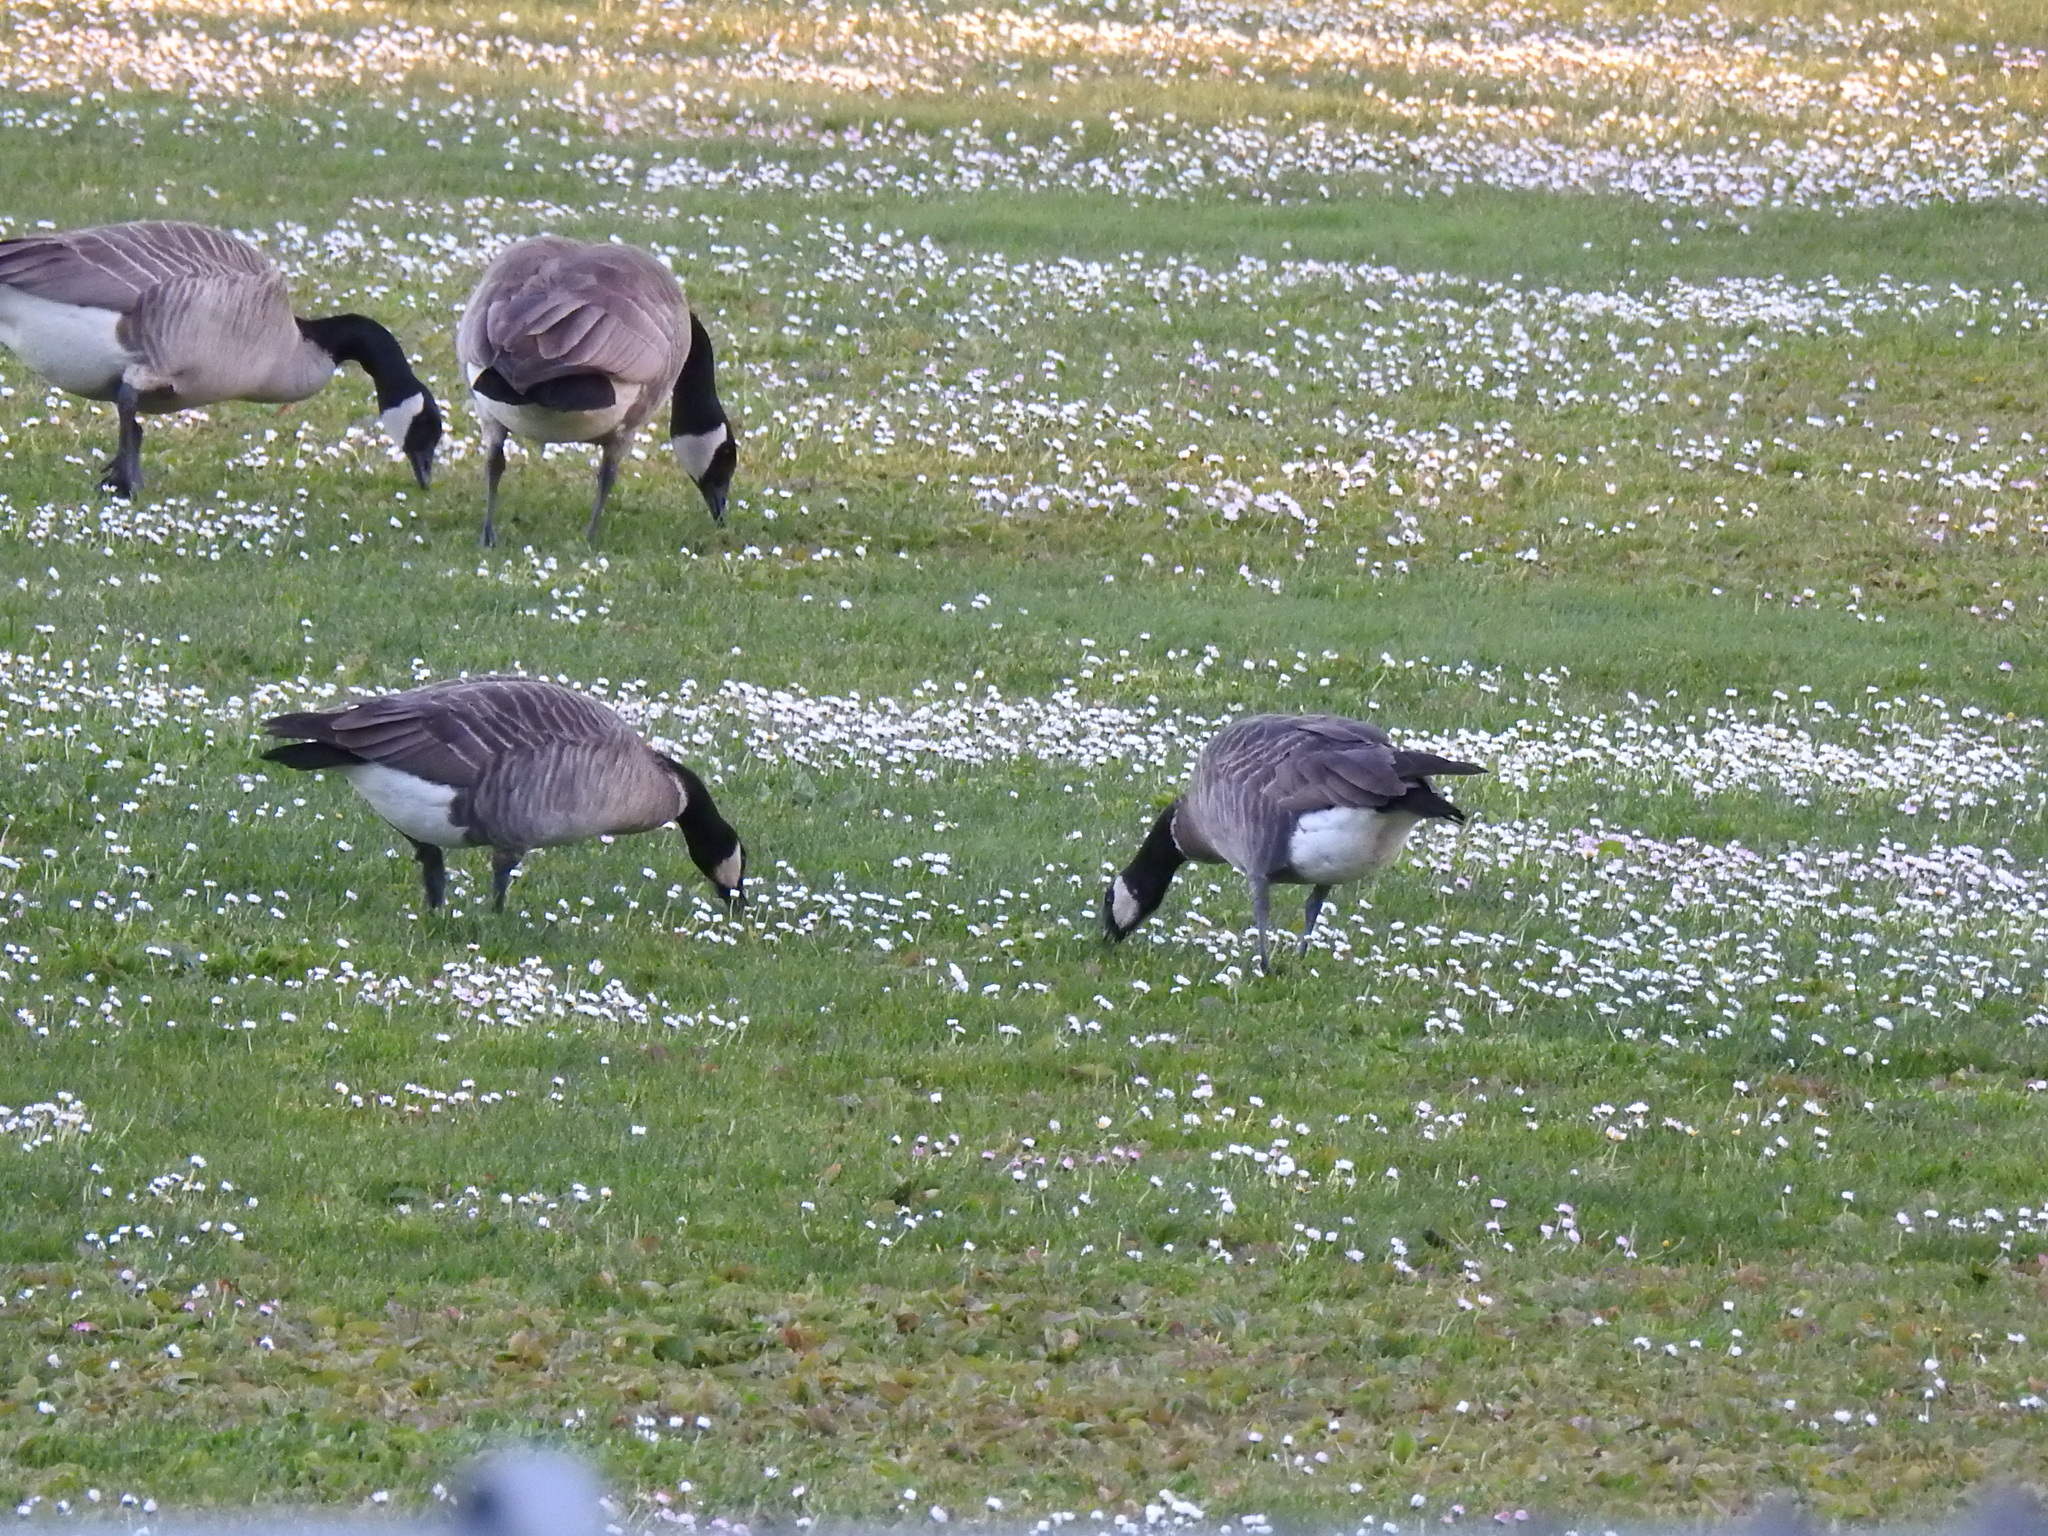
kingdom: Animalia
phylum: Chordata
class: Aves
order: Anseriformes
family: Anatidae
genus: Branta
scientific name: Branta hutchinsii
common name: Cackling goose
